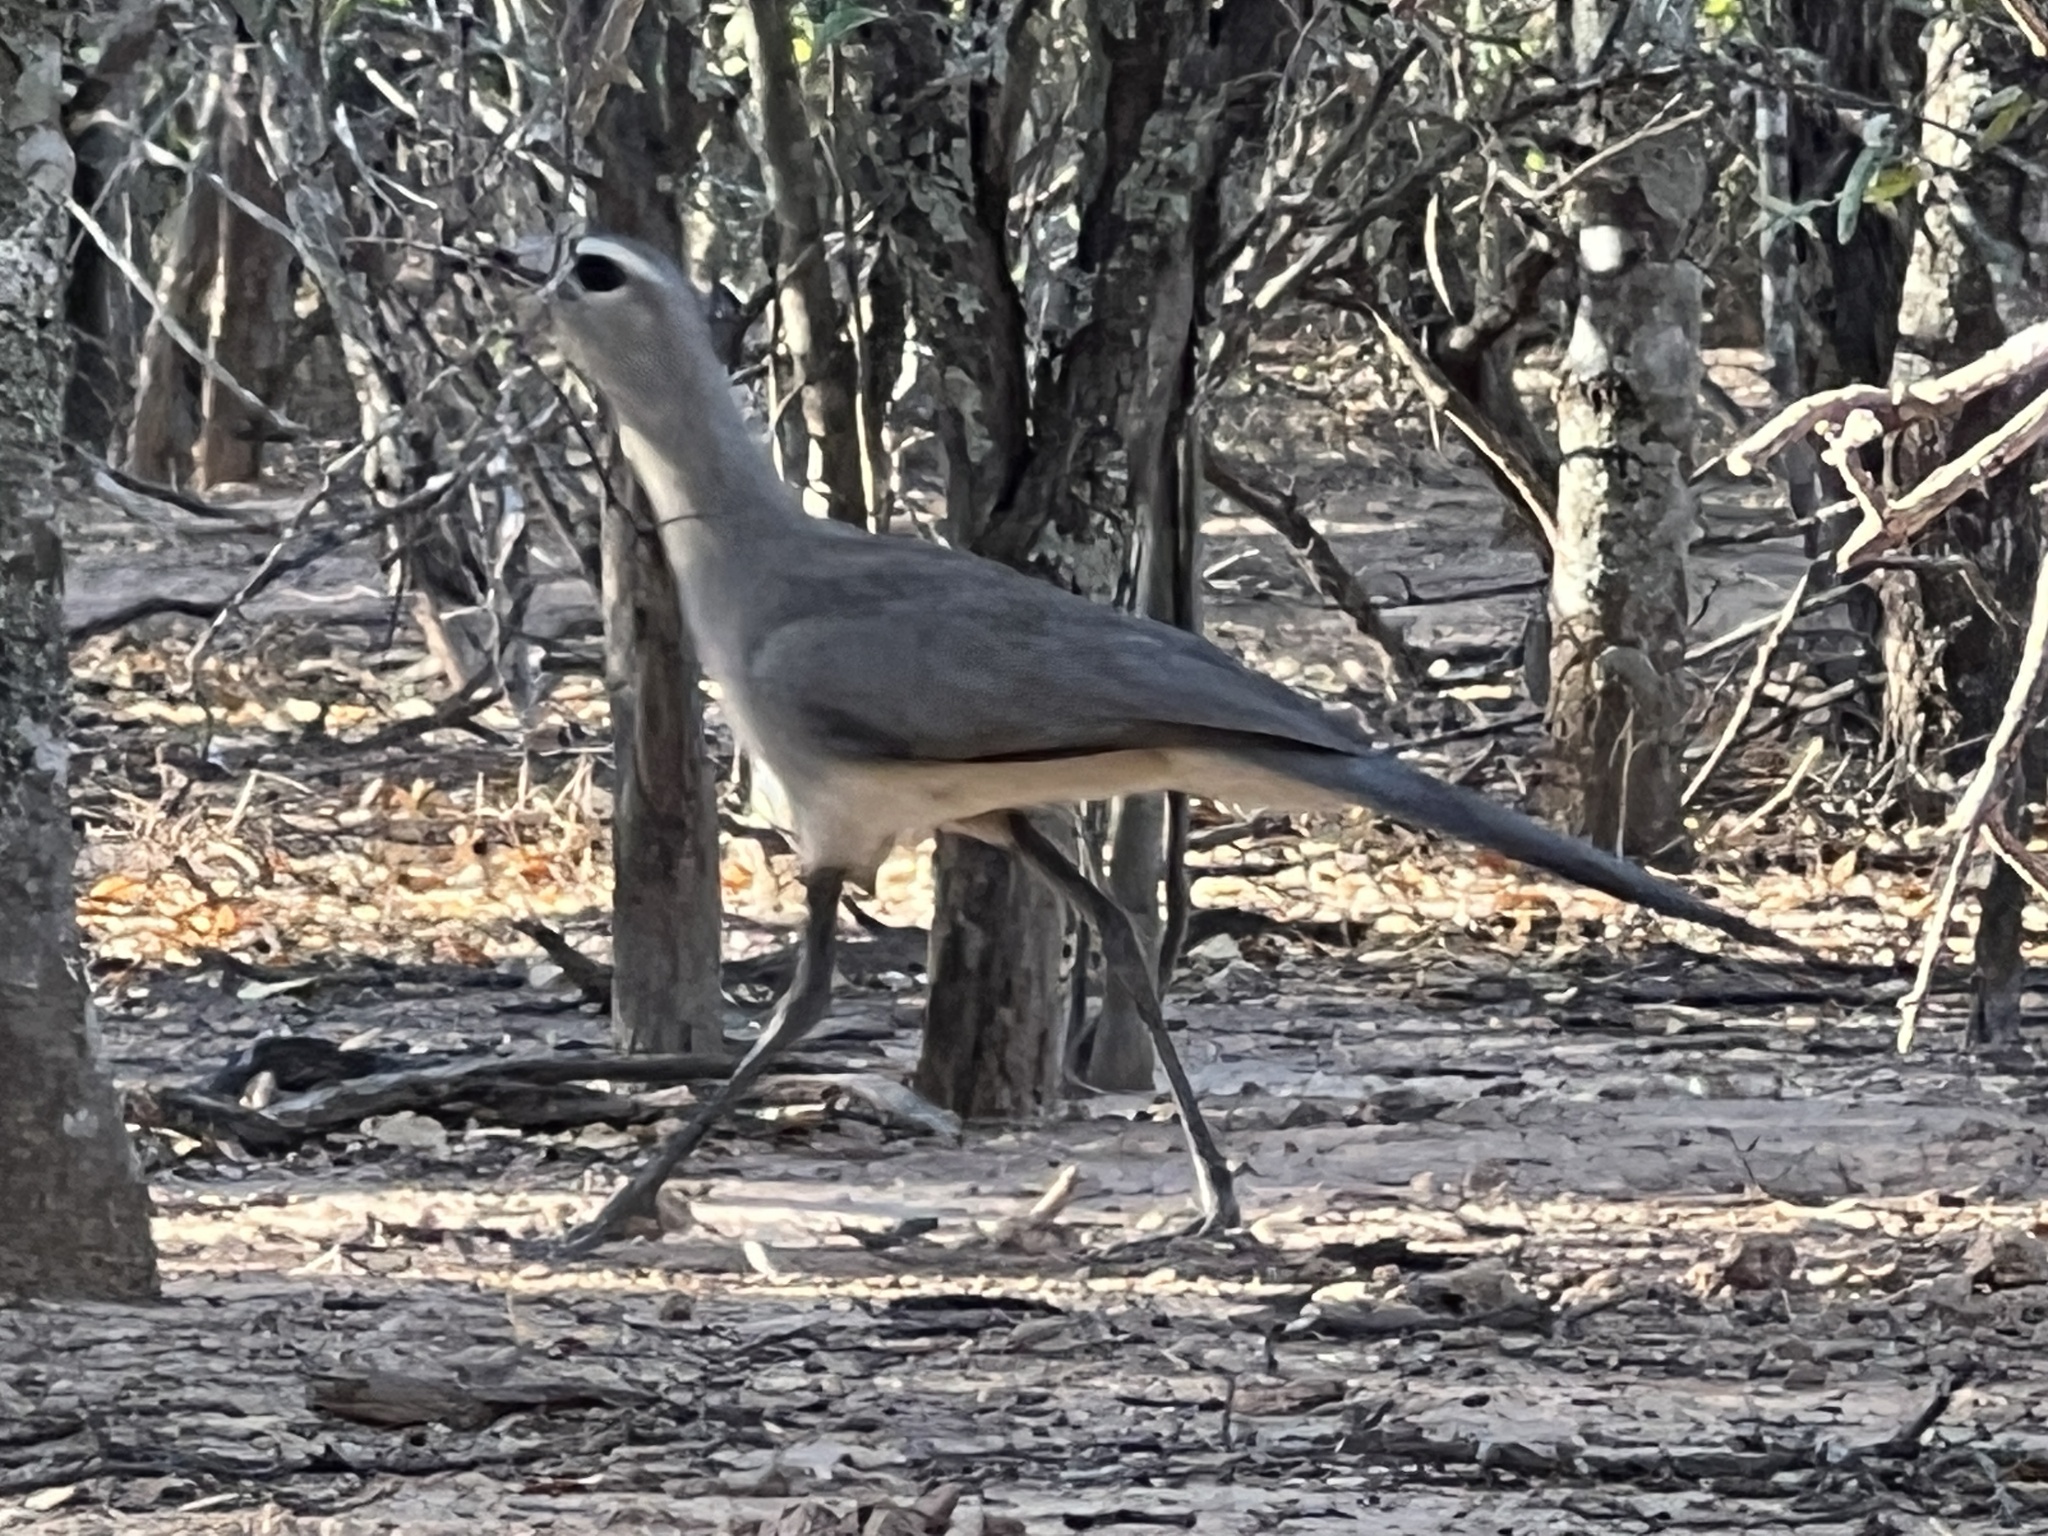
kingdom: Animalia
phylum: Chordata
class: Aves
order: Cariamiformes
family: Cariamidae
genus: Chunga
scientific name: Chunga burmeisteri
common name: Black-legged seriema
